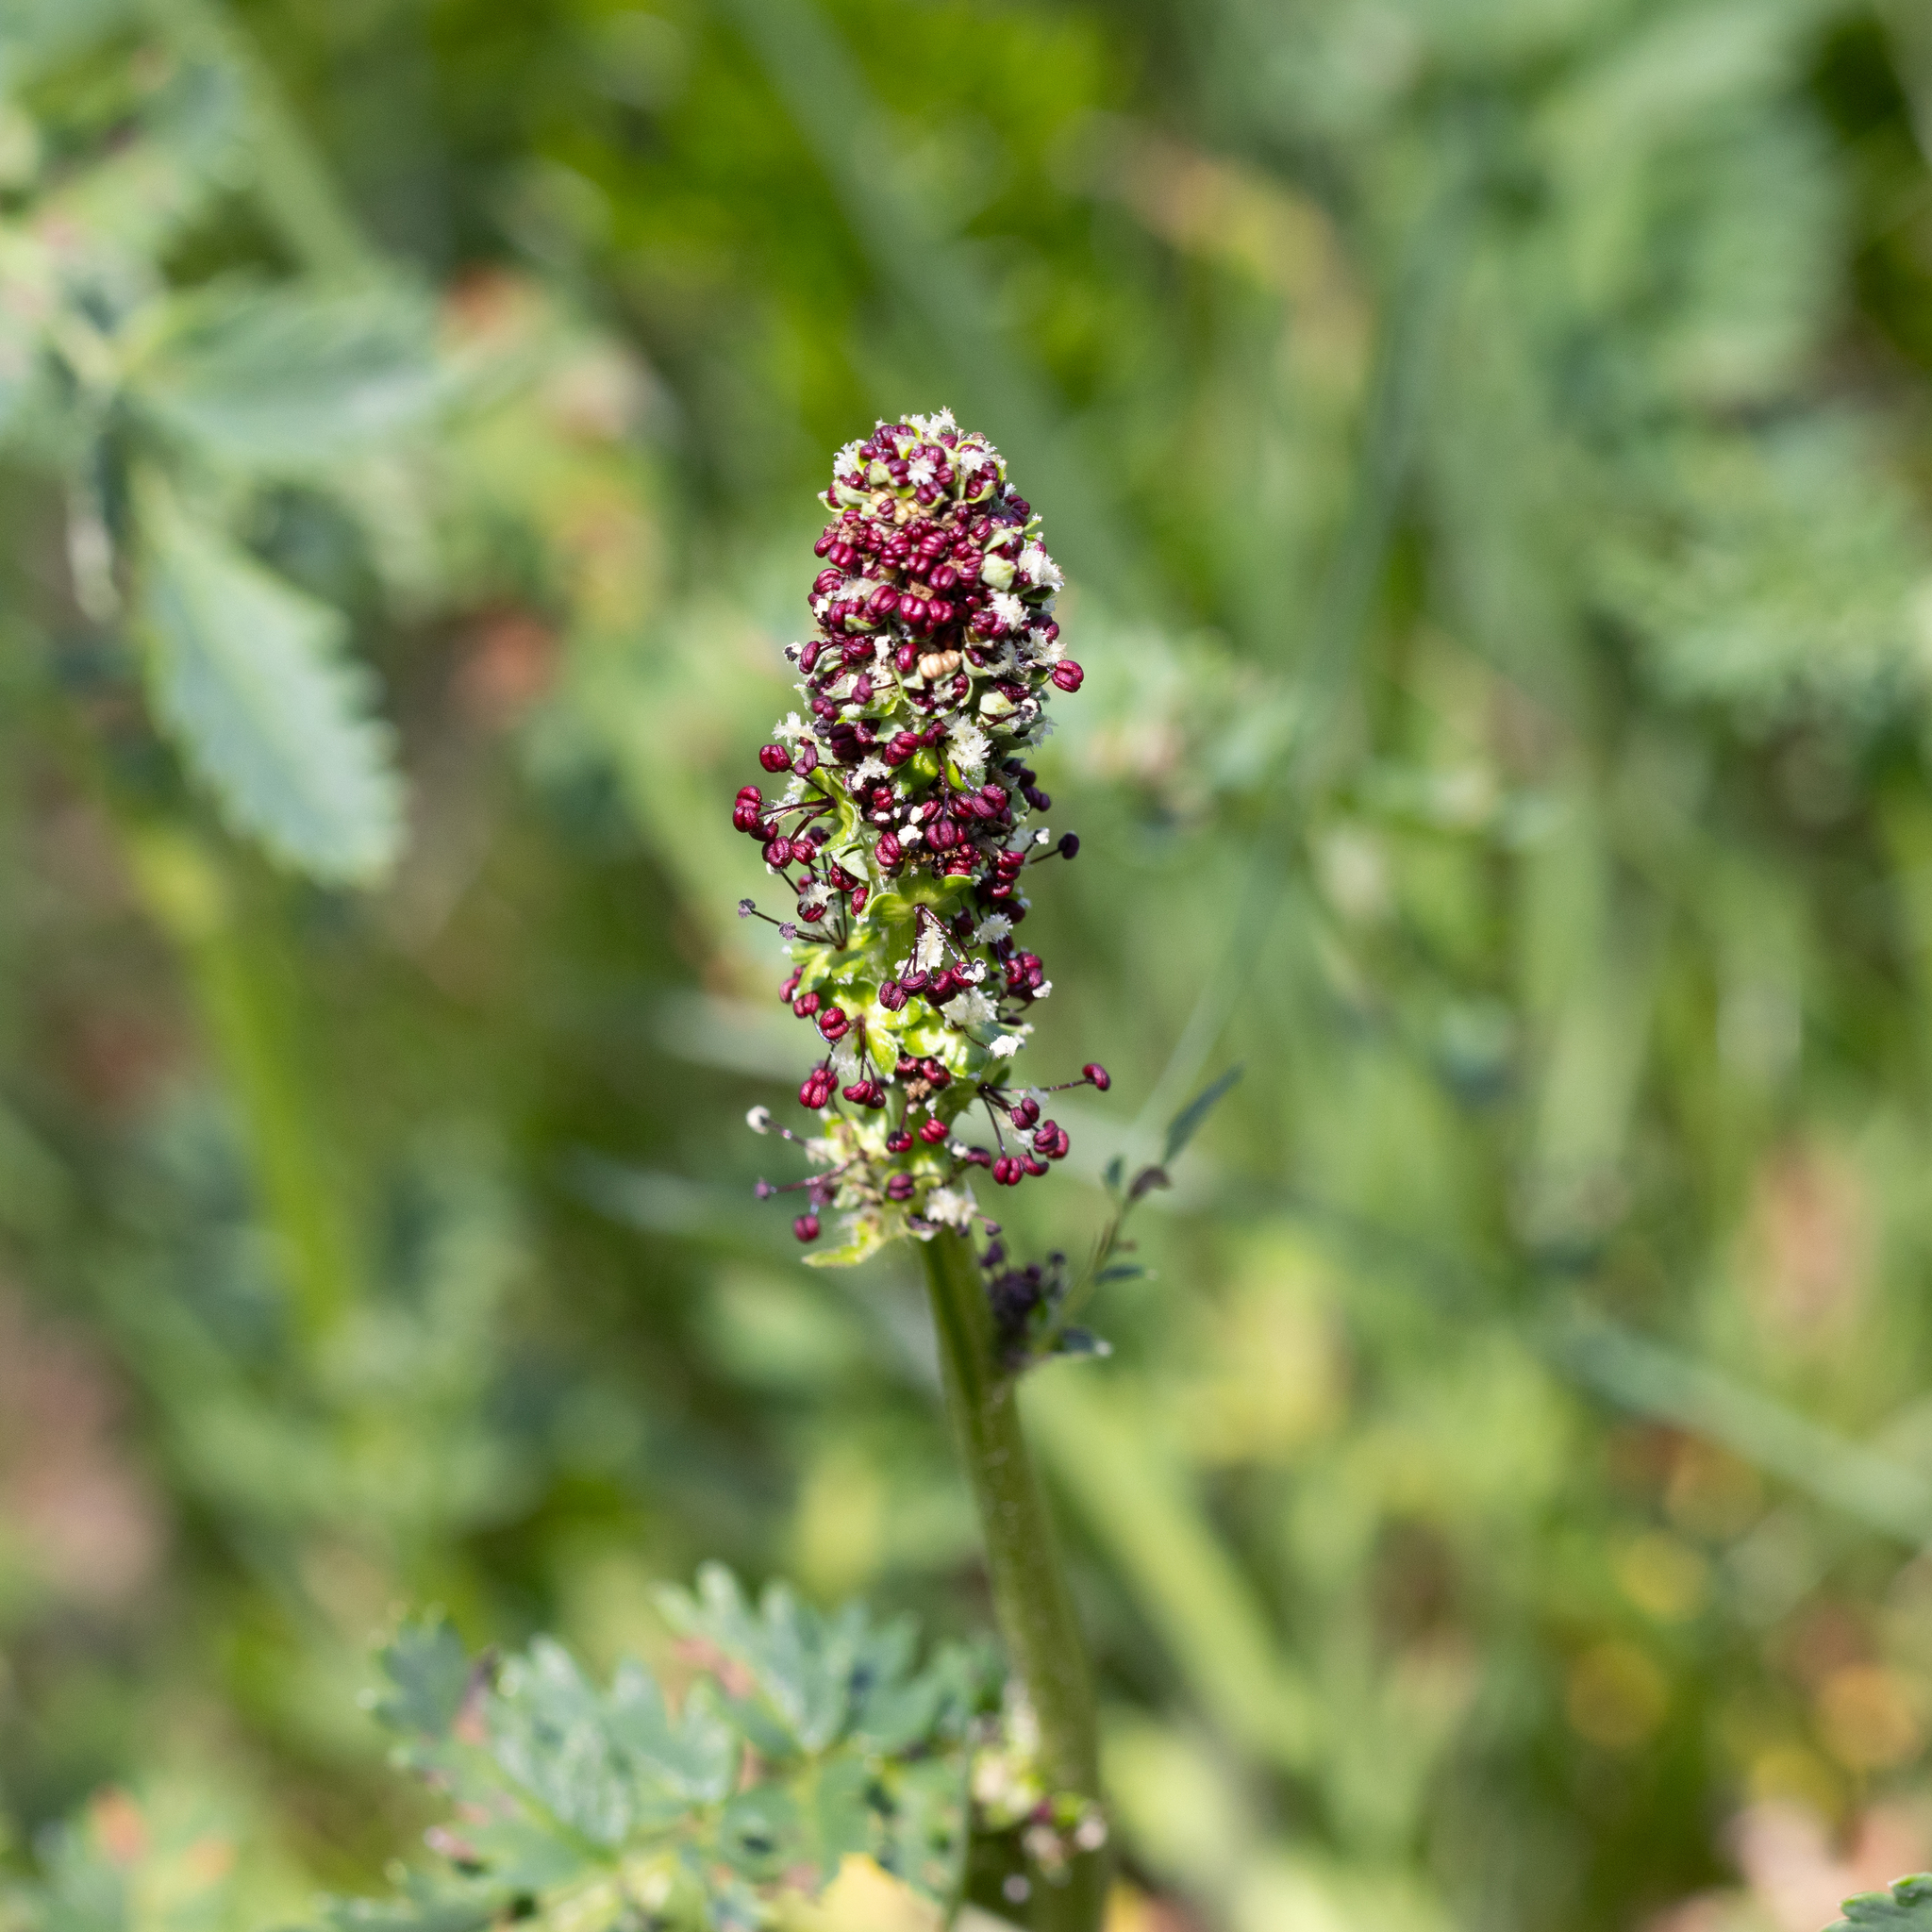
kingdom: Plantae
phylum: Tracheophyta
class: Magnoliopsida
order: Rosales
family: Rosaceae
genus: Acaena
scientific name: Acaena echinata
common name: Sheepbur
